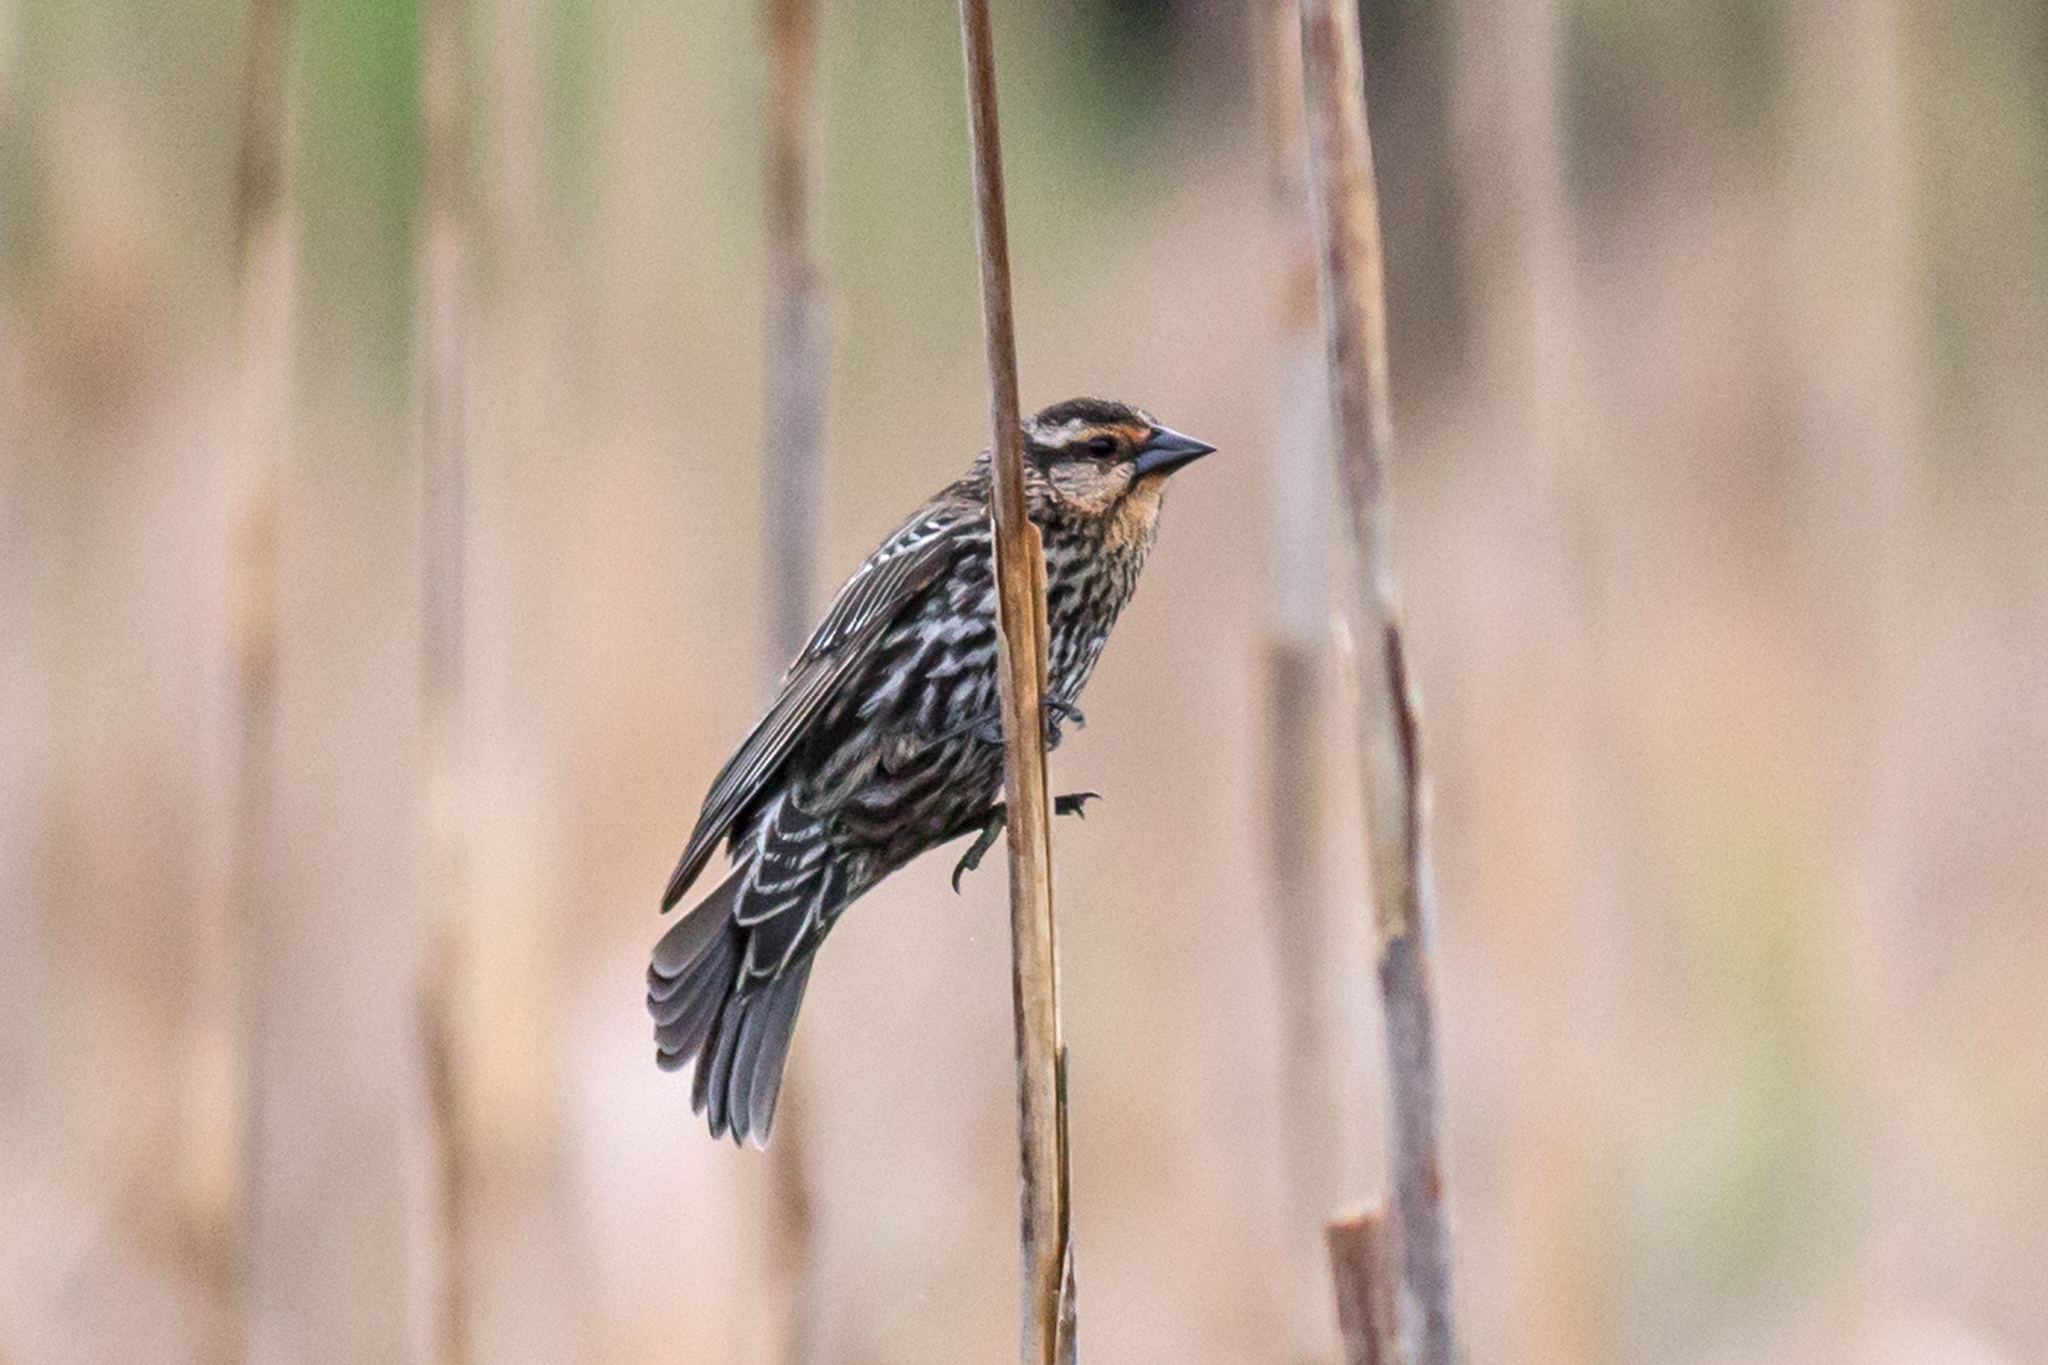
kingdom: Animalia
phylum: Chordata
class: Aves
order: Passeriformes
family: Icteridae
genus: Agelaius
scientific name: Agelaius phoeniceus
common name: Red-winged blackbird
